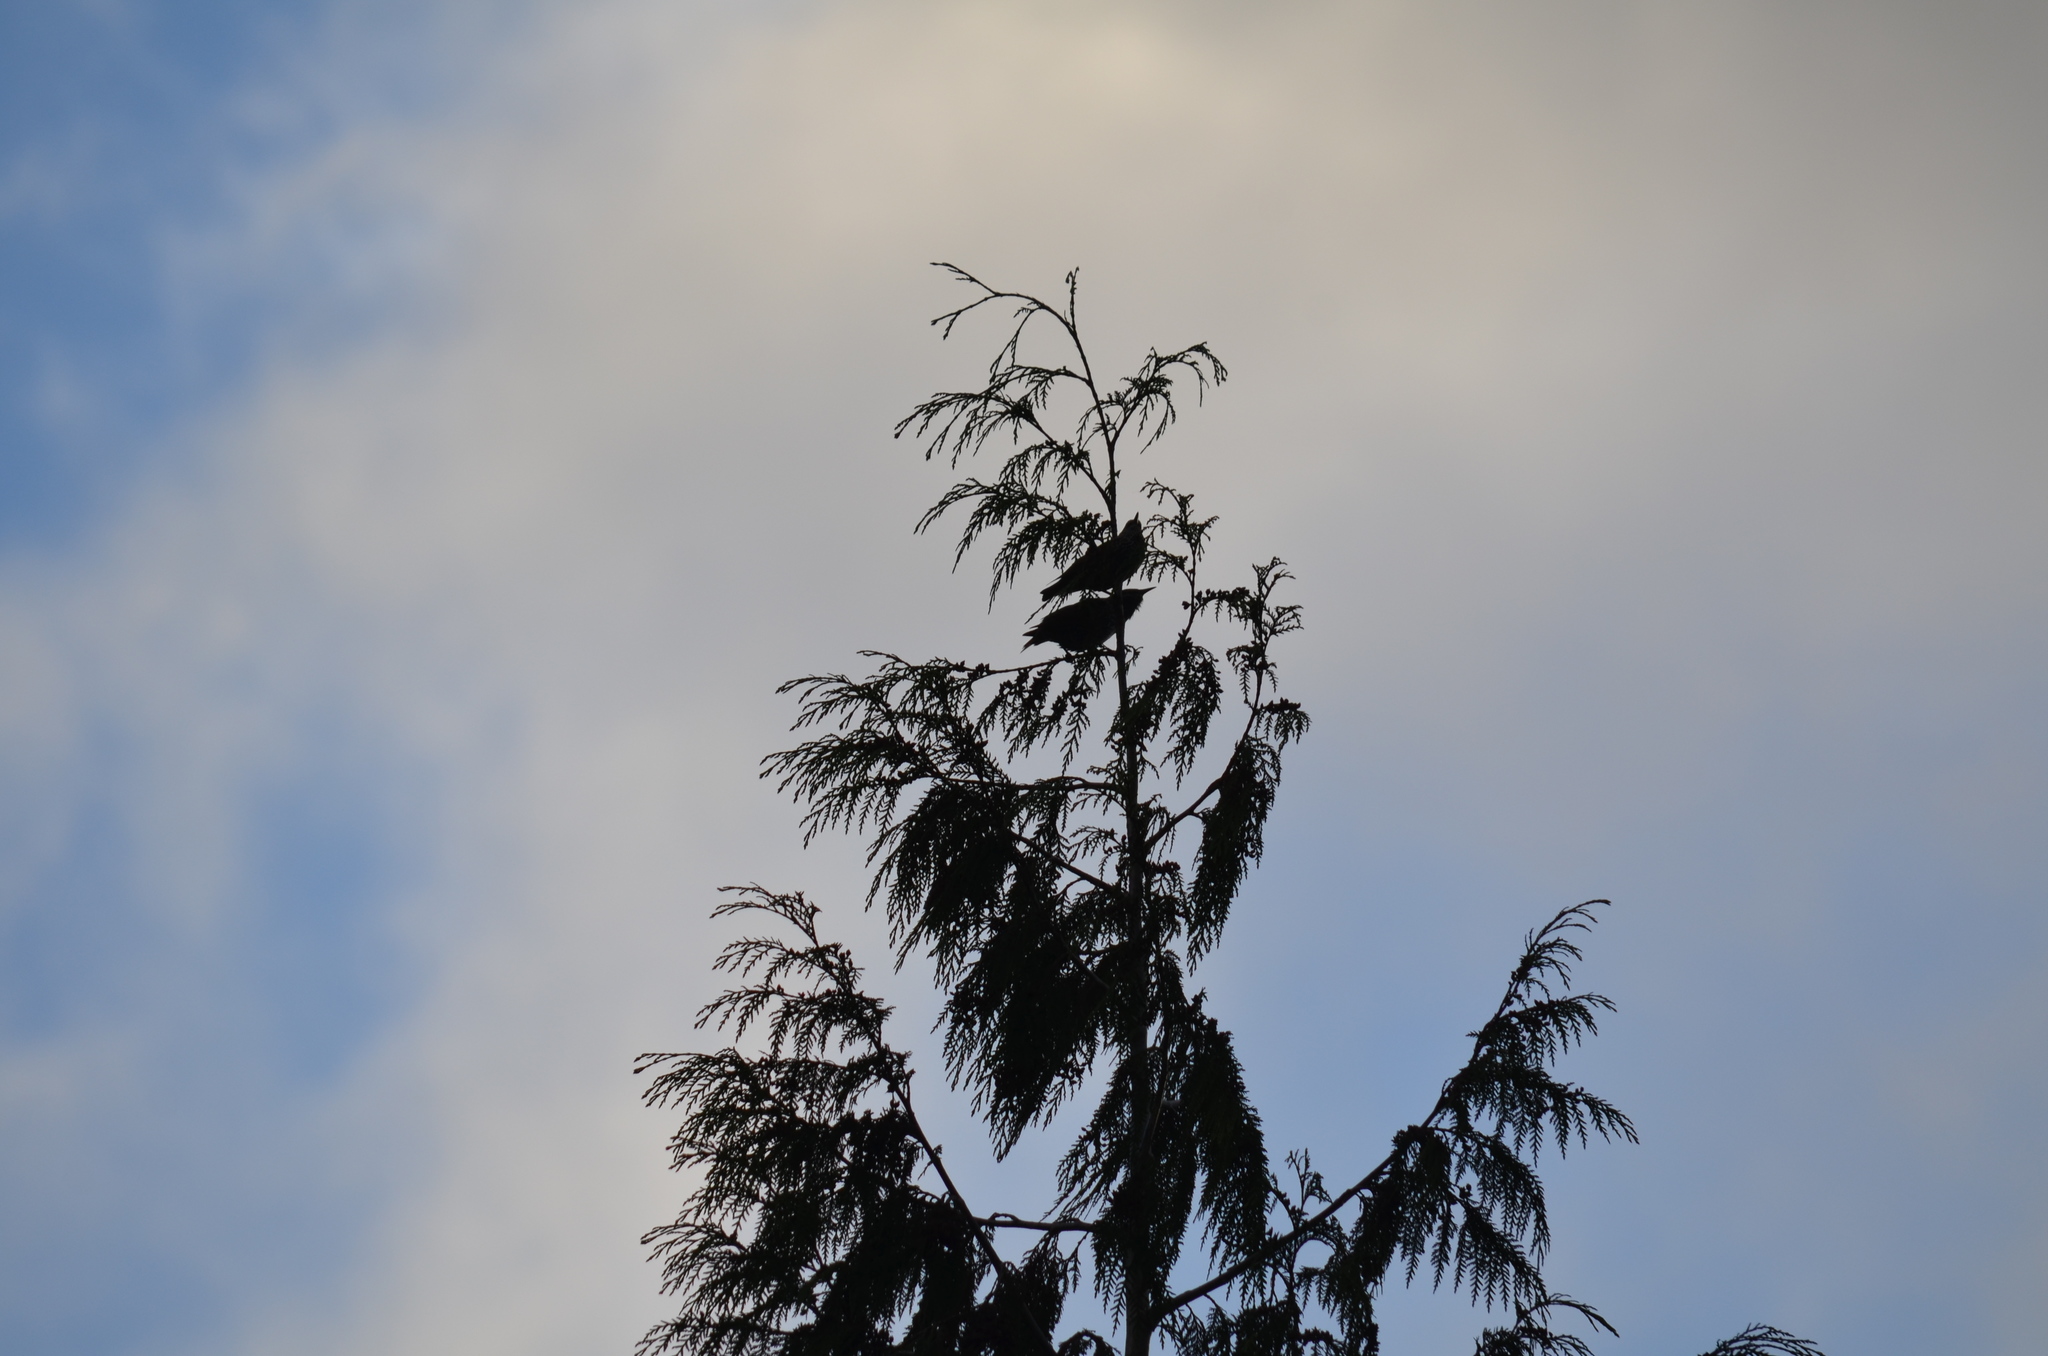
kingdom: Animalia
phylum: Chordata
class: Aves
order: Passeriformes
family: Sturnidae
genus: Sturnus
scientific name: Sturnus vulgaris
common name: Common starling
